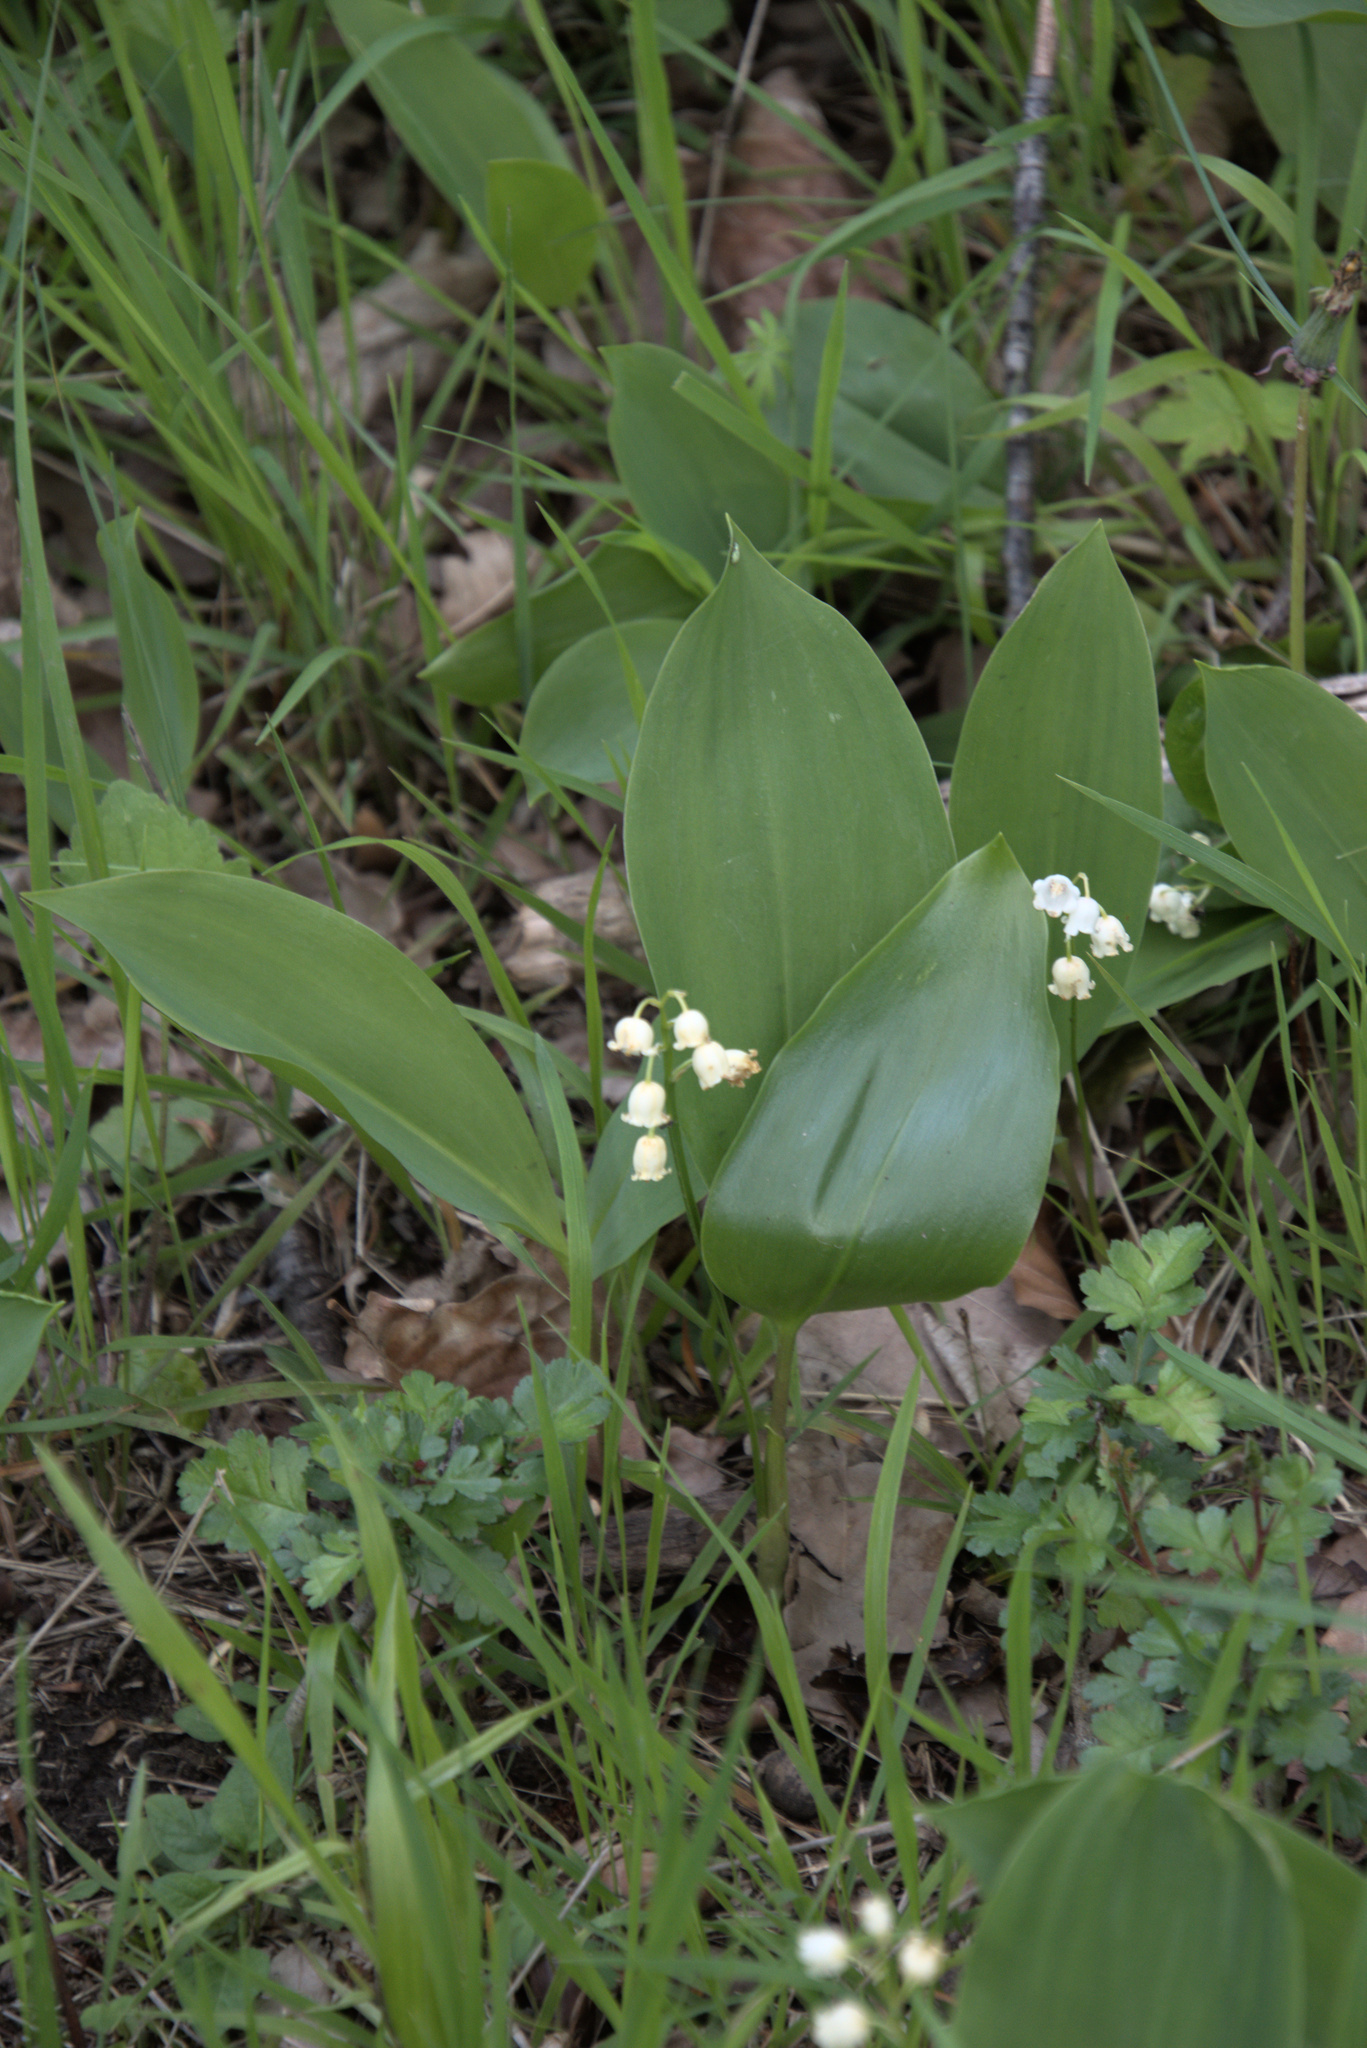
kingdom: Plantae
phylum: Tracheophyta
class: Liliopsida
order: Asparagales
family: Asparagaceae
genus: Convallaria
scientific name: Convallaria majalis
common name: Lily-of-the-valley
